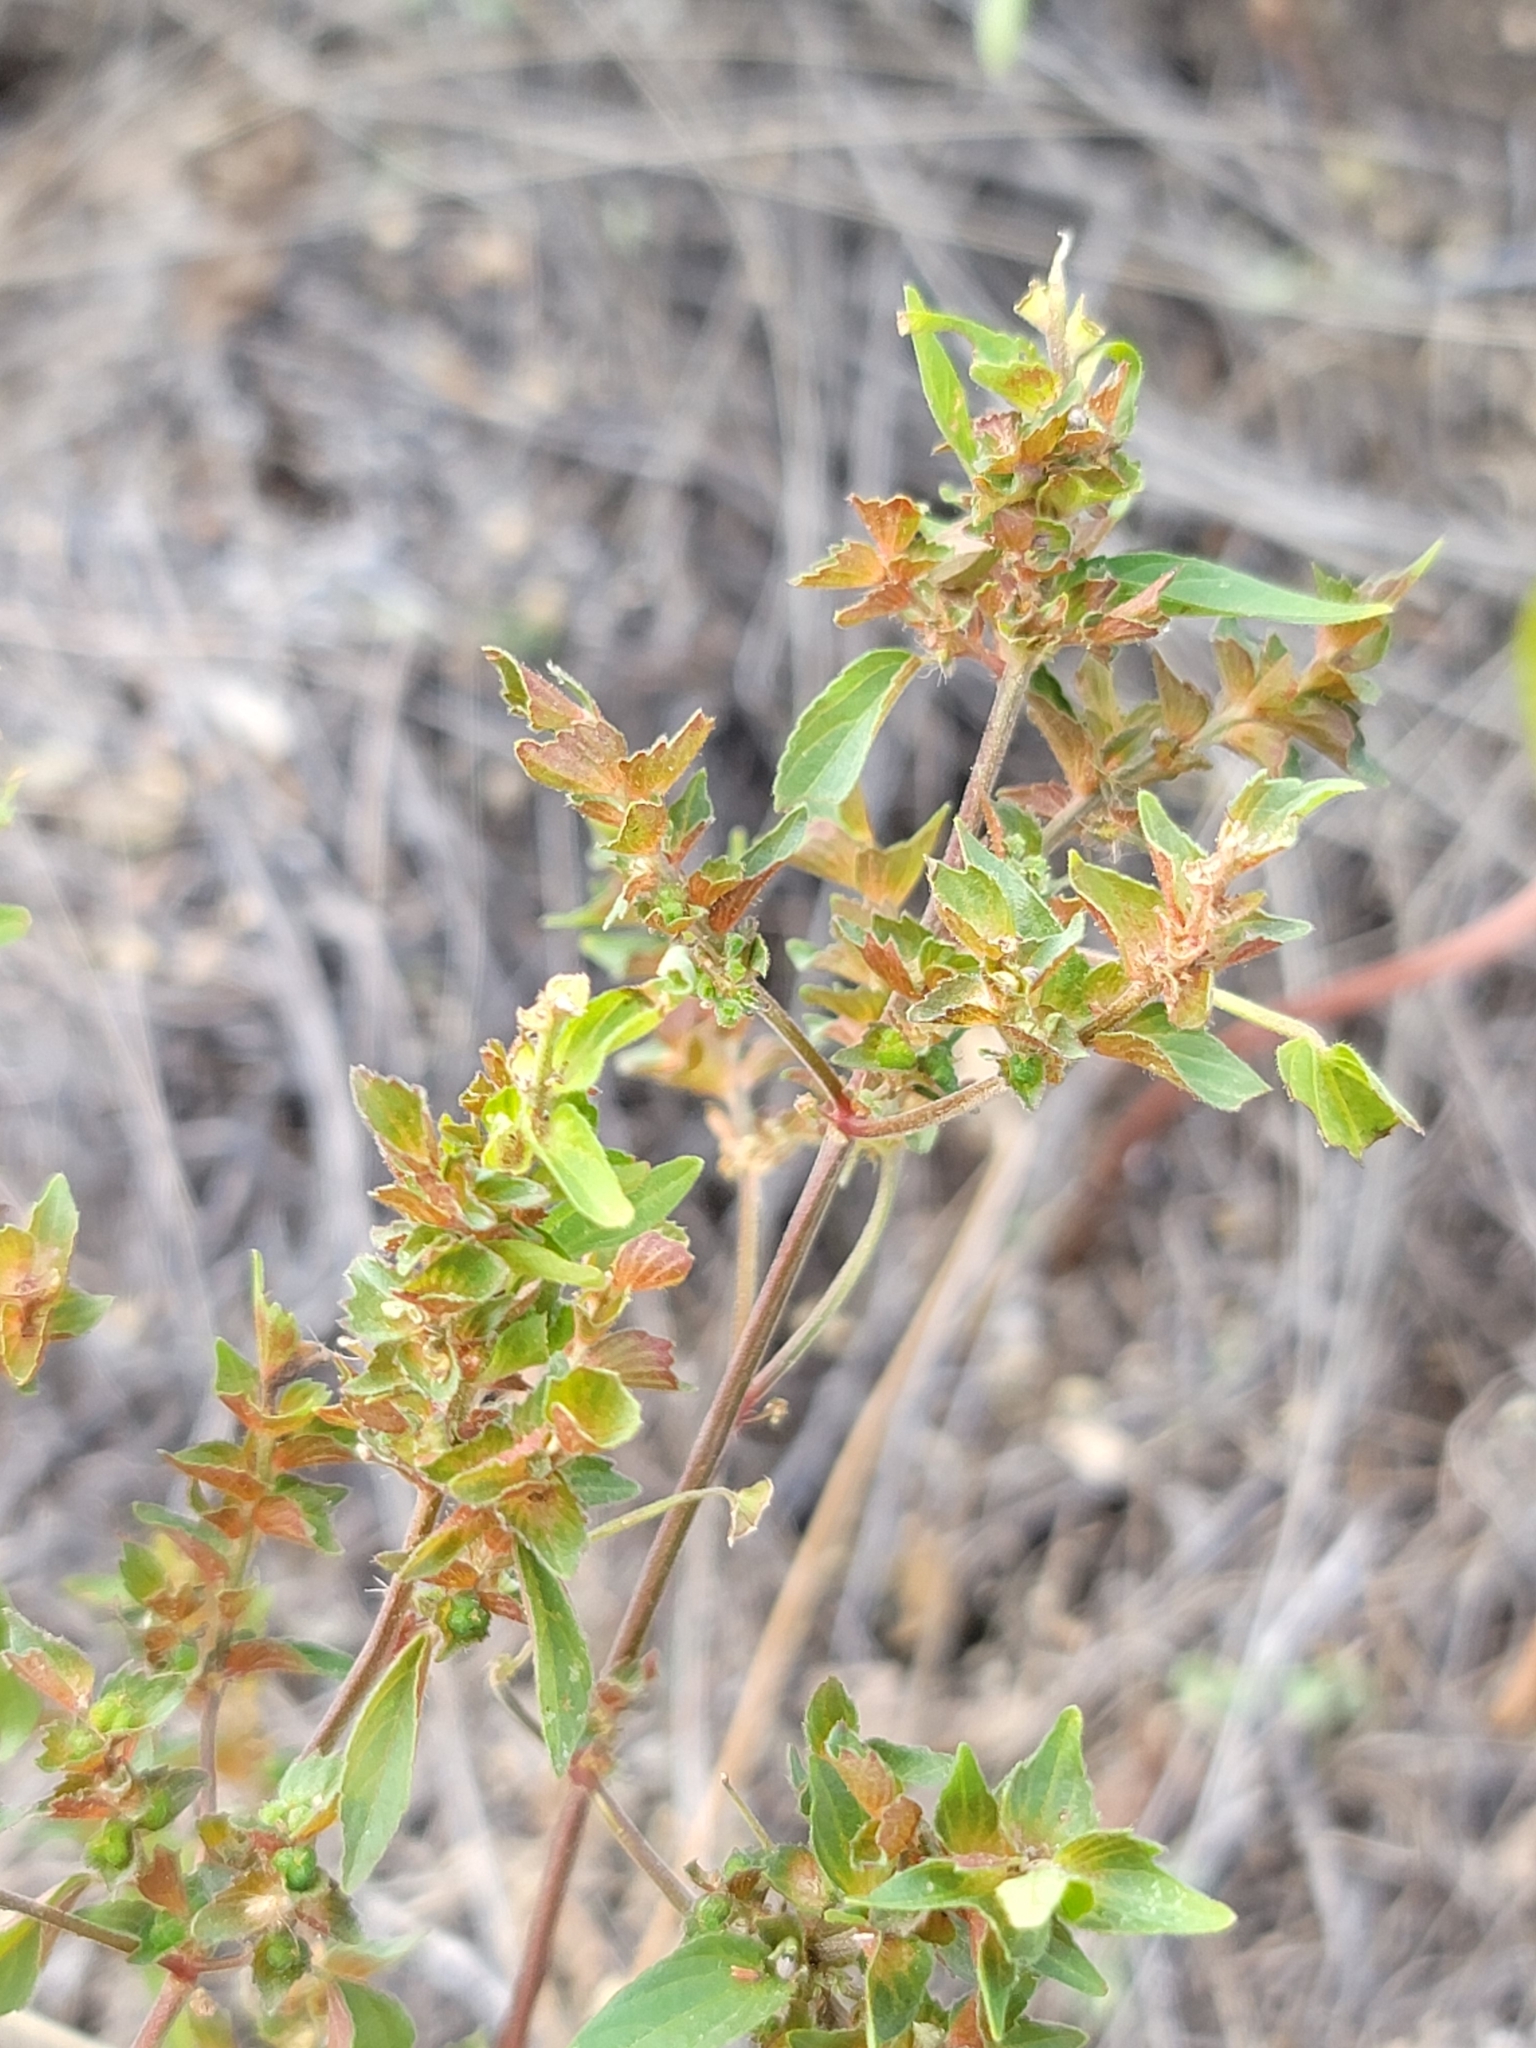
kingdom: Plantae
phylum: Tracheophyta
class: Magnoliopsida
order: Malpighiales
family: Euphorbiaceae
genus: Acalypha
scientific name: Acalypha neomexicana
